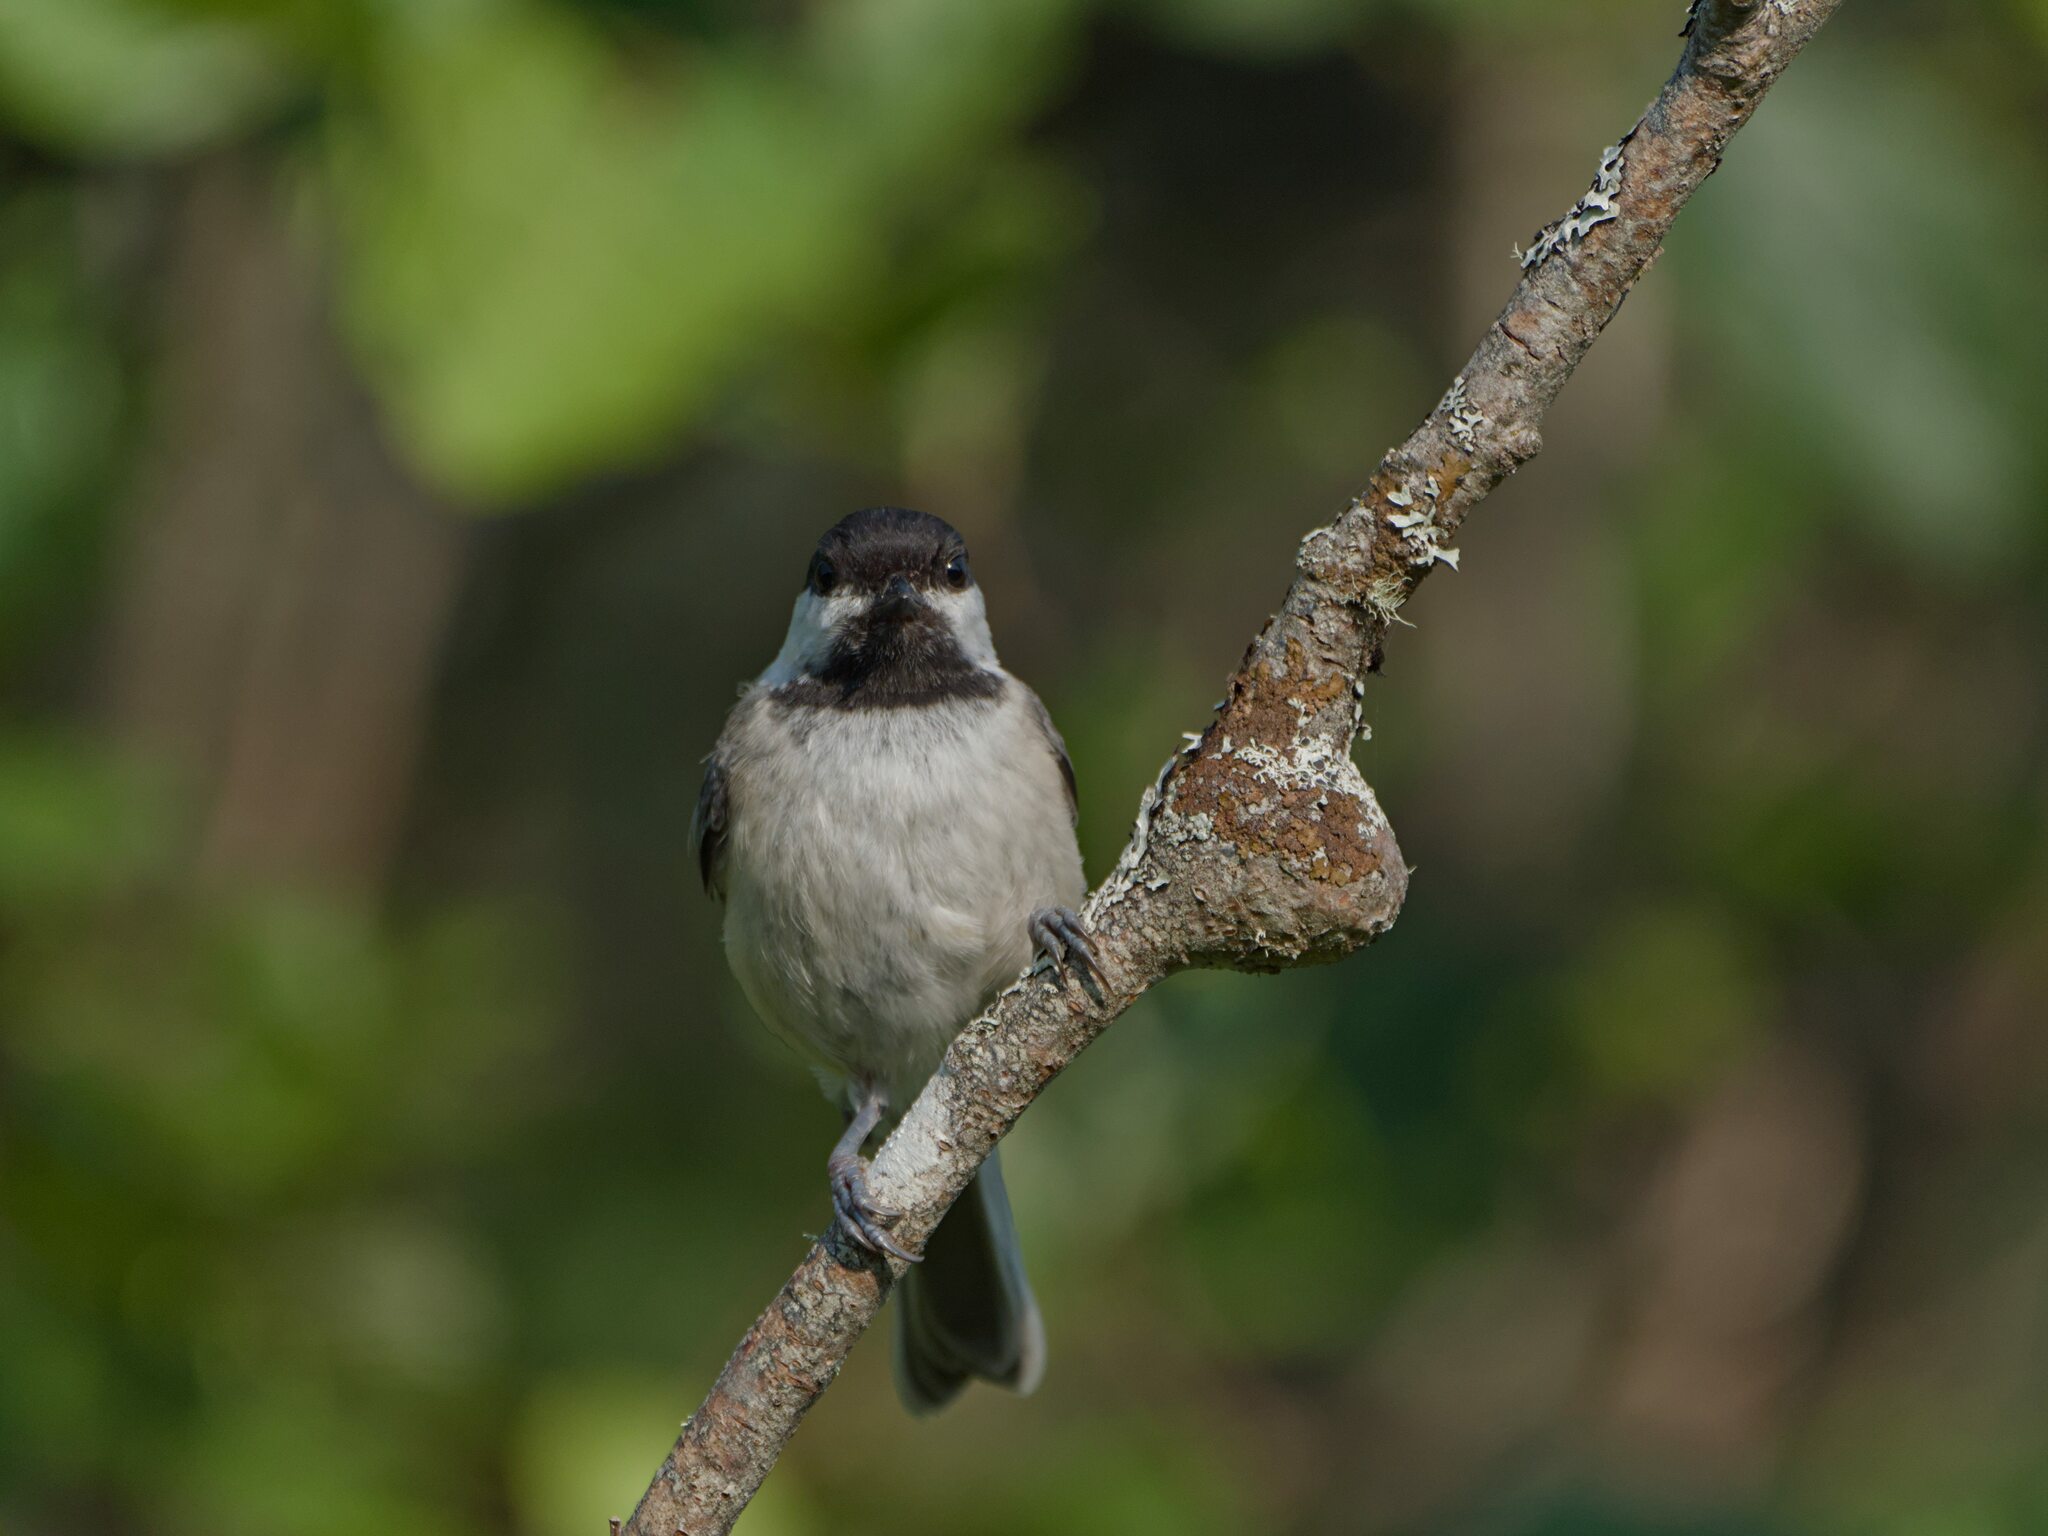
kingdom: Animalia
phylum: Chordata
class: Aves
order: Passeriformes
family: Paridae
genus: Poecile
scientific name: Poecile atricapillus
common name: Black-capped chickadee
